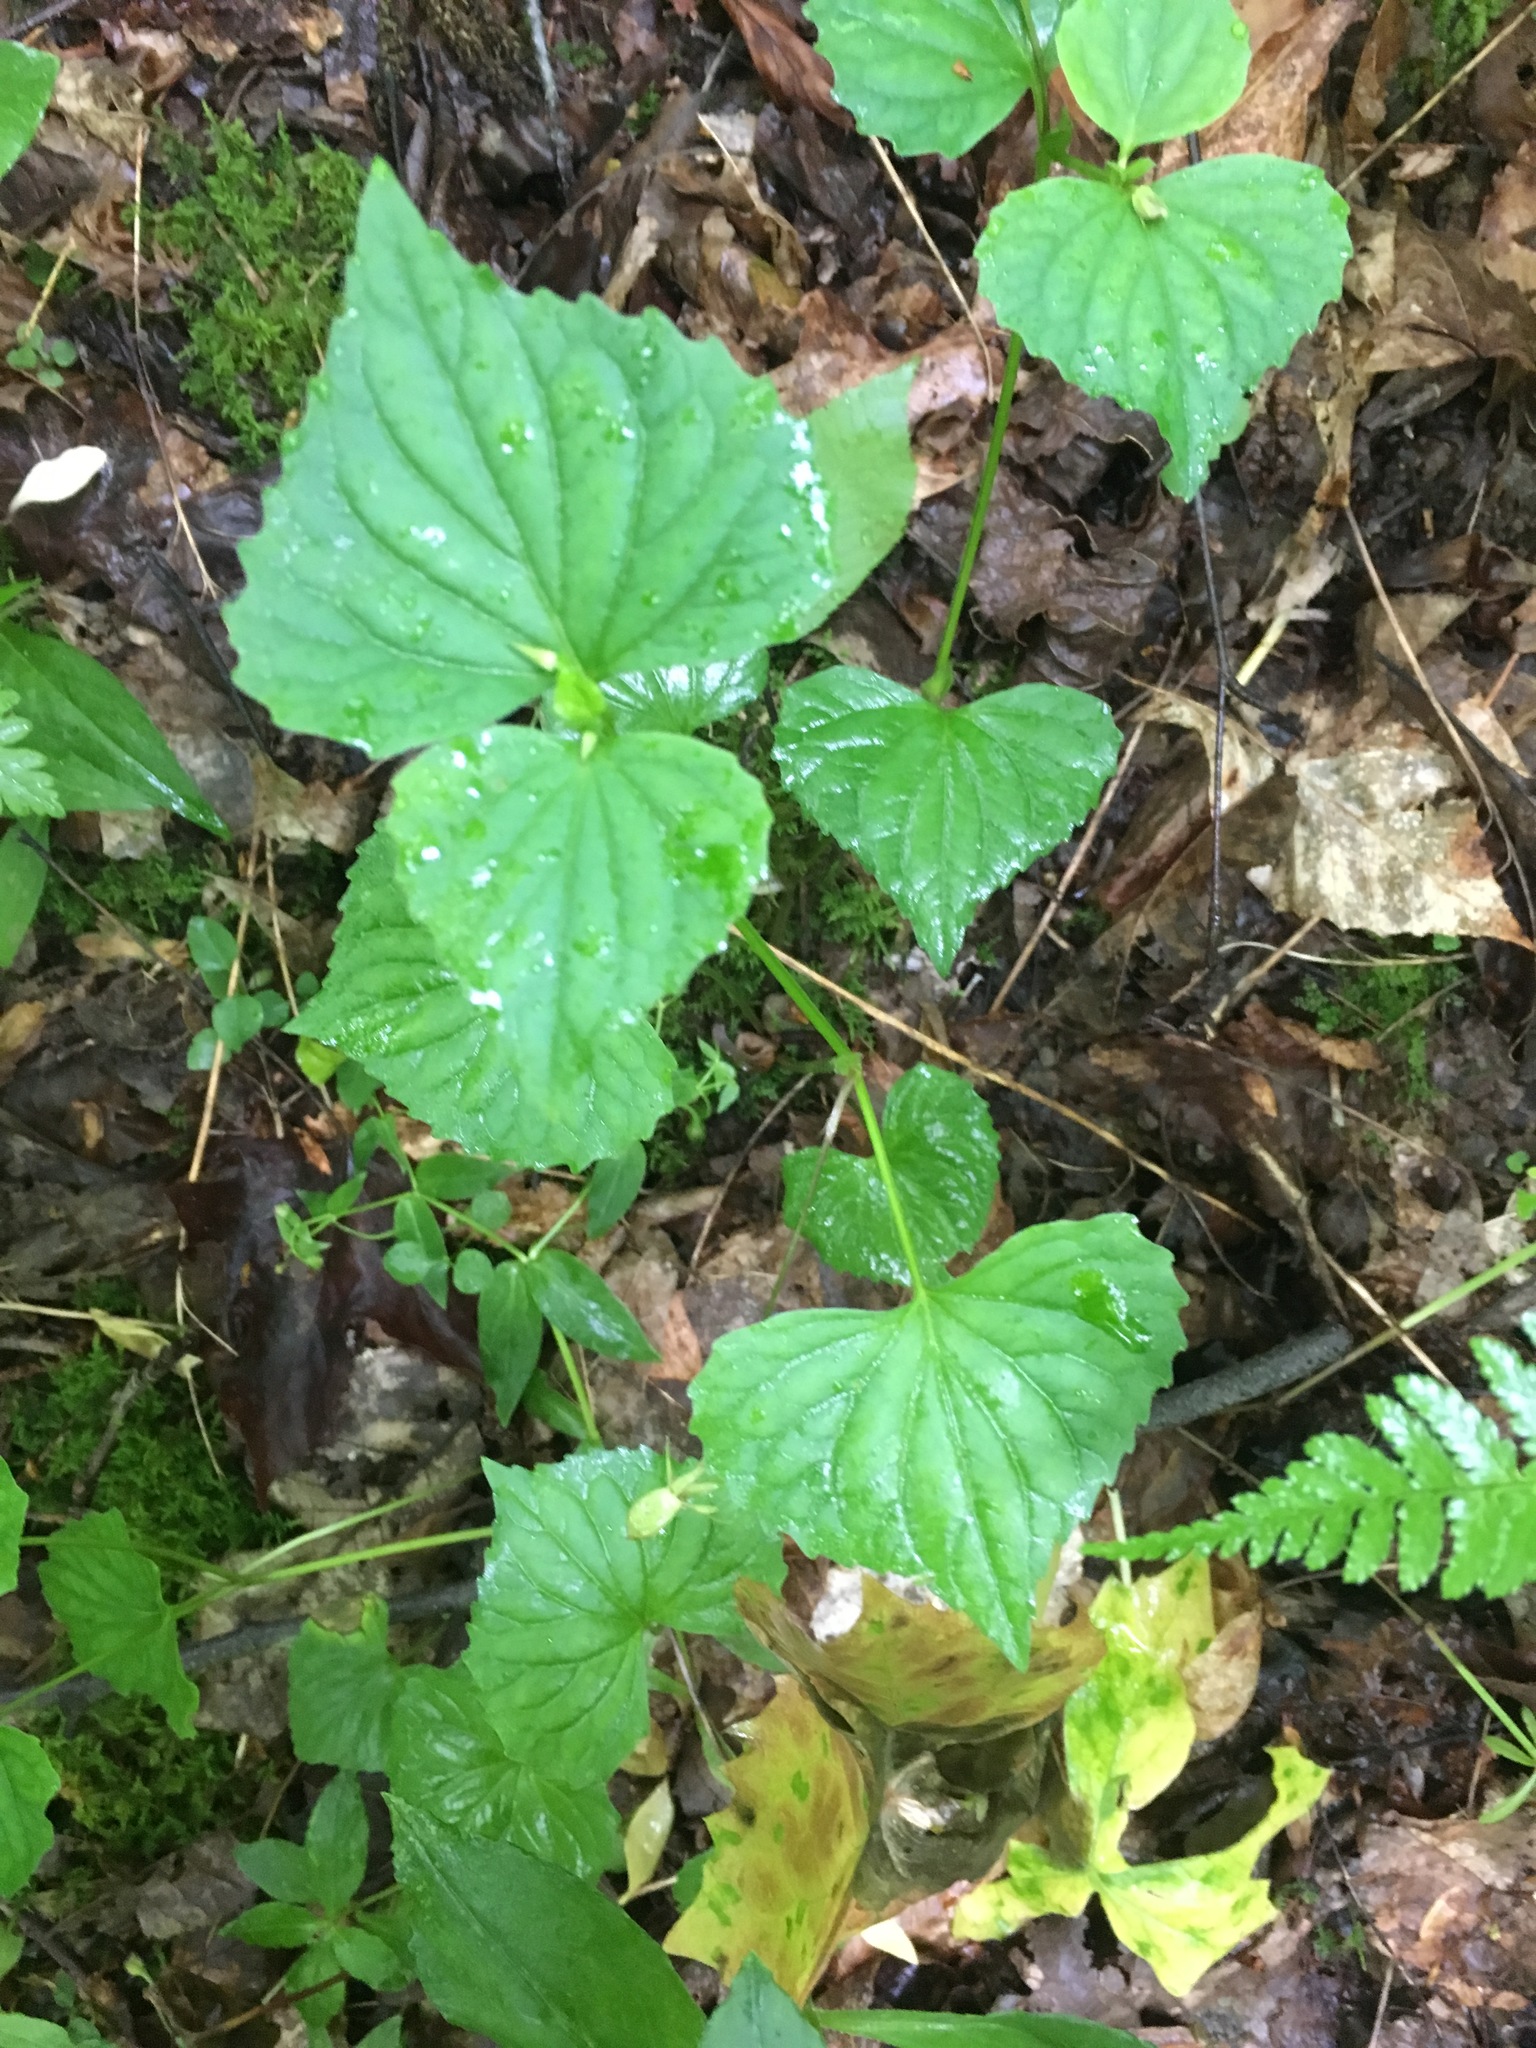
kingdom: Plantae
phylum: Tracheophyta
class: Magnoliopsida
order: Malpighiales
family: Violaceae
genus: Viola
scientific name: Viola eriocarpa
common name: Smooth yellow violet
